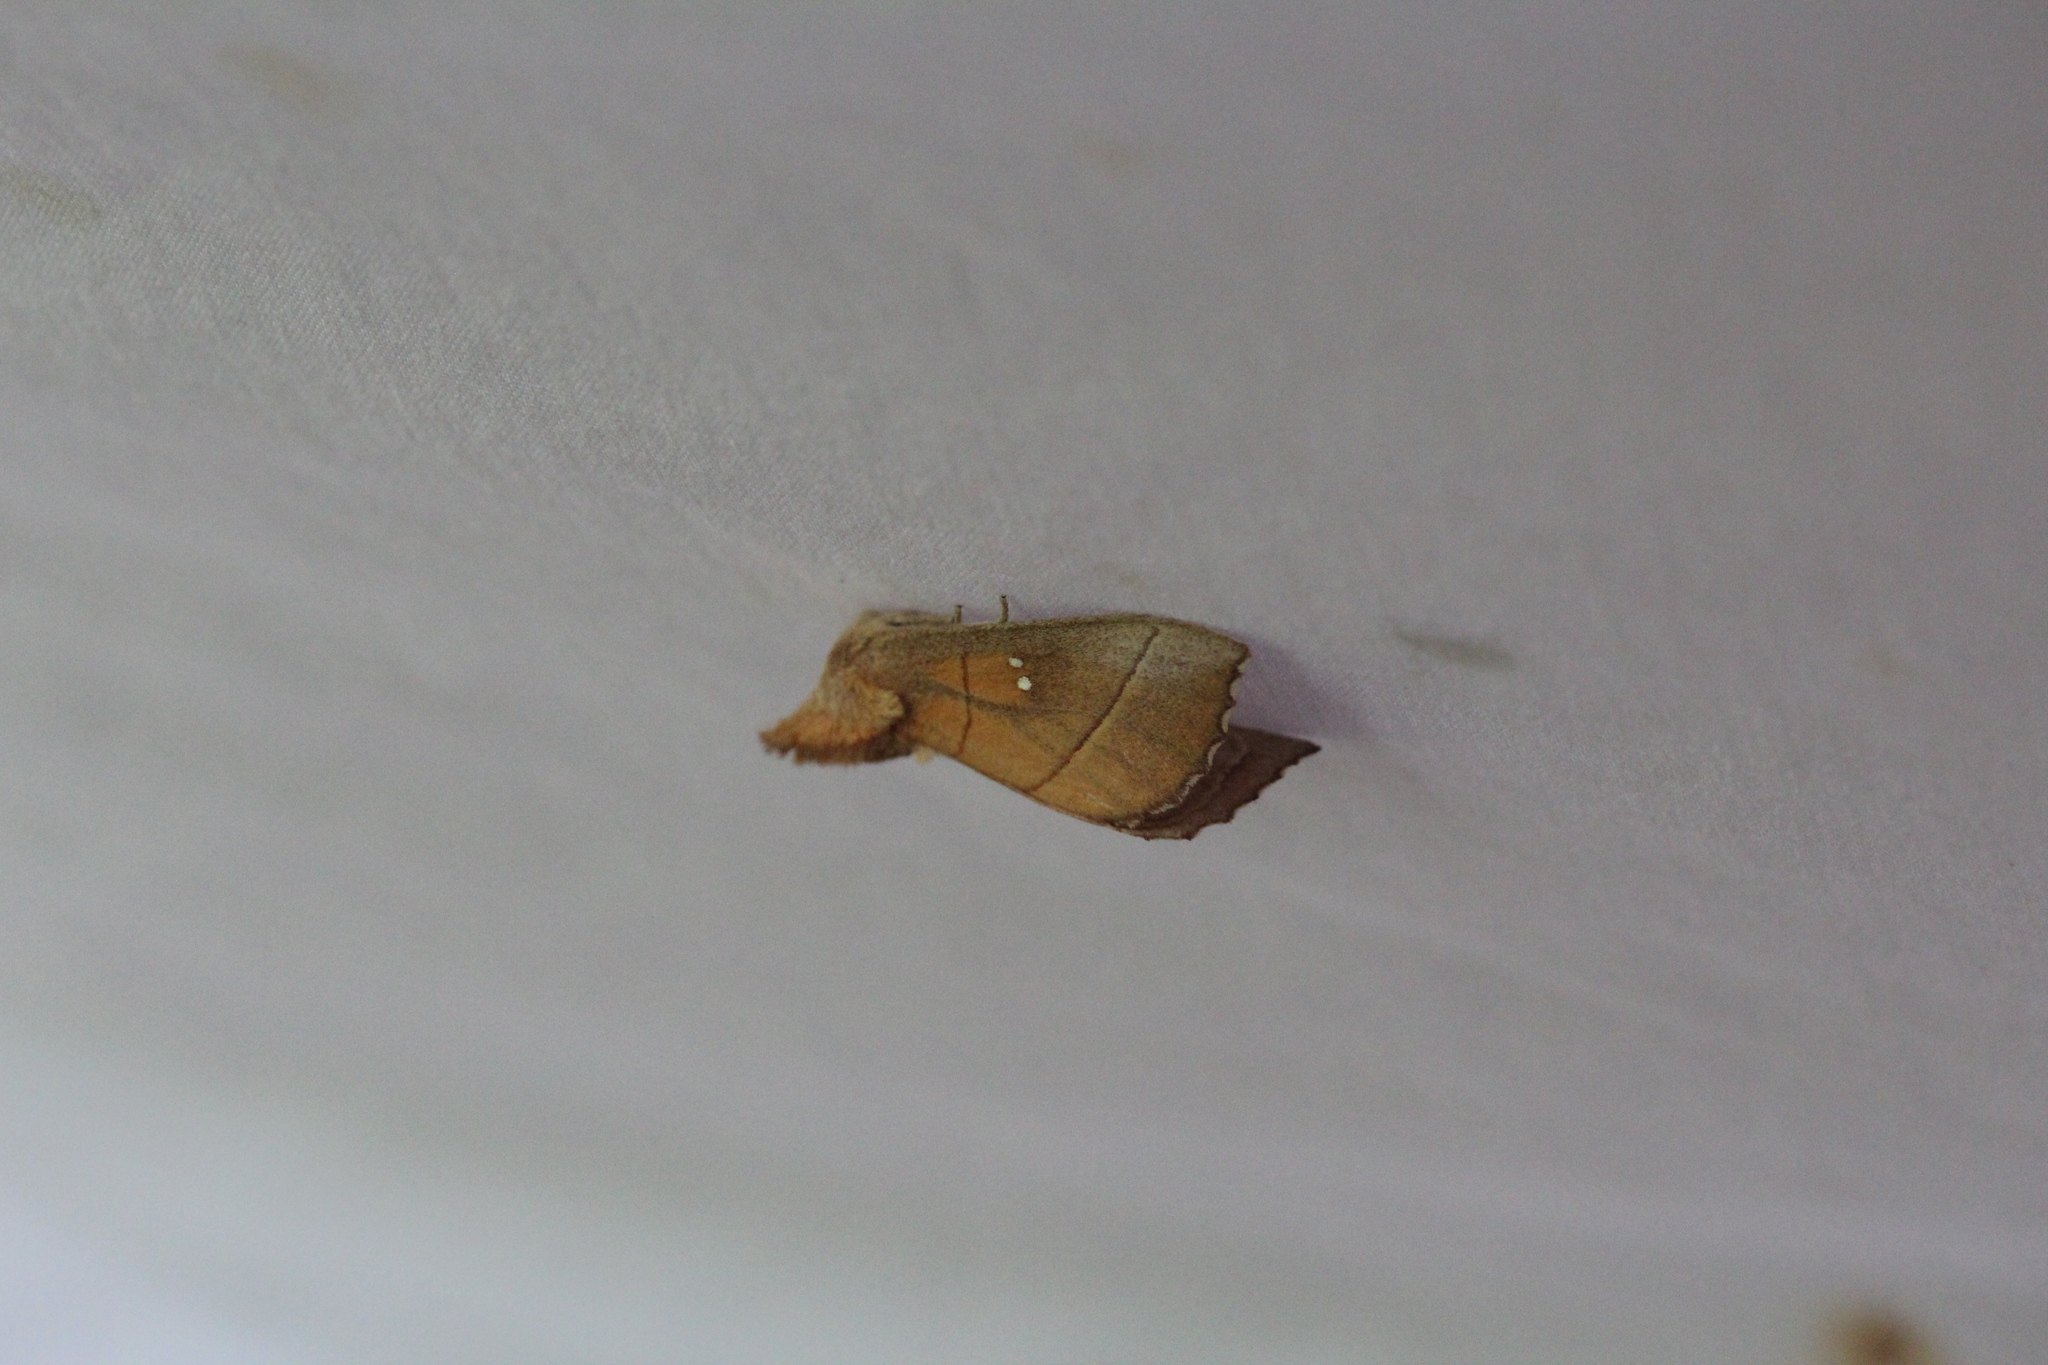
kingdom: Animalia
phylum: Arthropoda
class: Insecta
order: Lepidoptera
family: Notodontidae
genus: Nadata
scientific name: Nadata gibbosa
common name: White-dotted prominent
